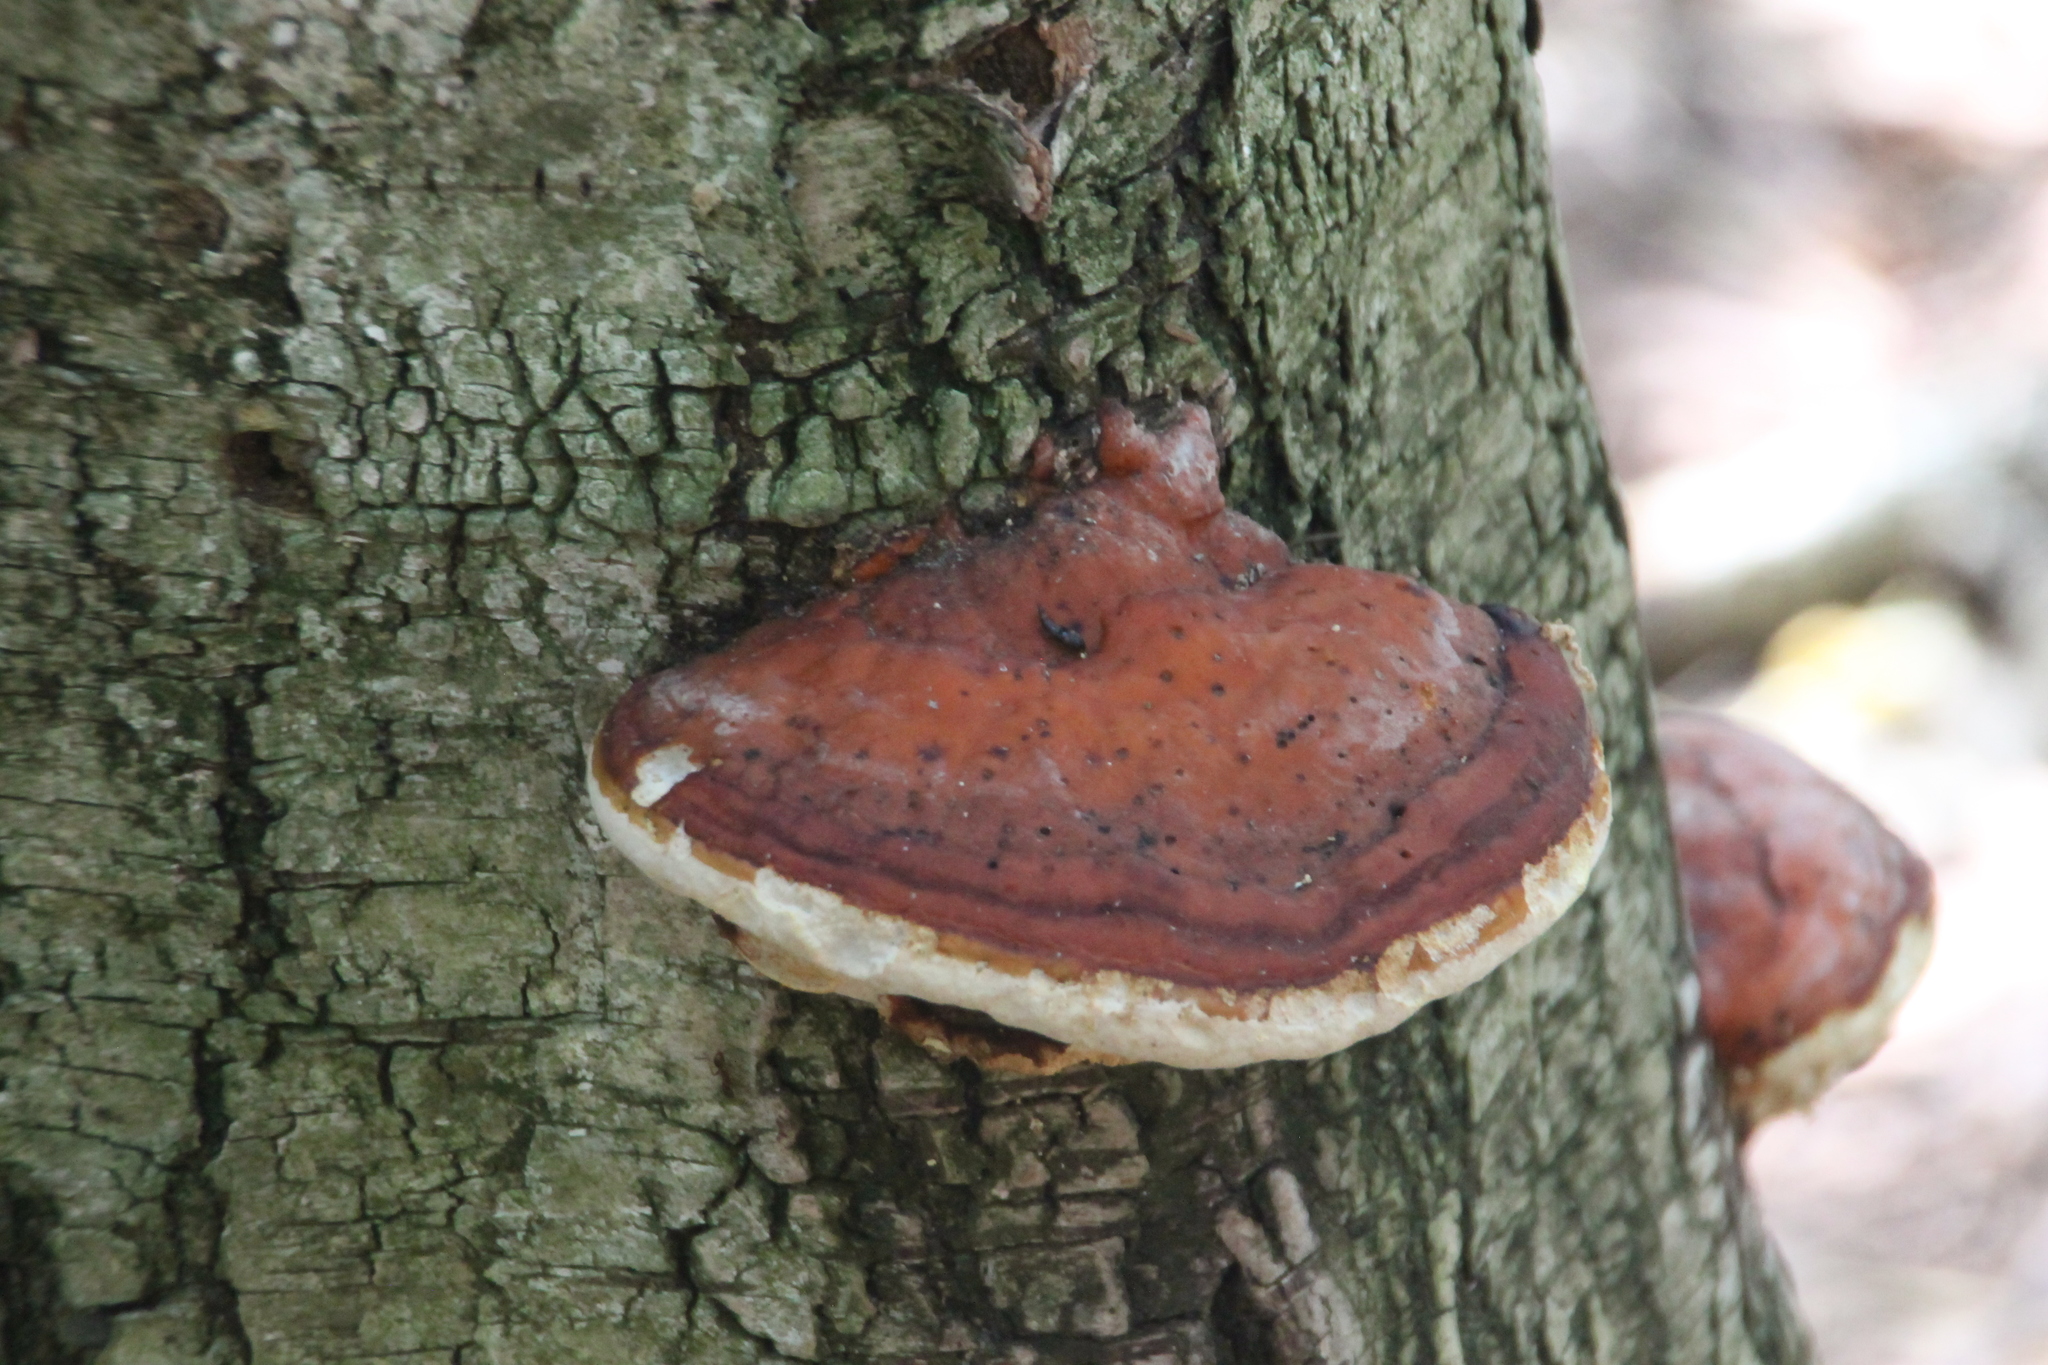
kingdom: Fungi
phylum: Basidiomycota
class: Agaricomycetes
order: Polyporales
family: Fomitopsidaceae
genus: Fomitopsis
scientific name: Fomitopsis pinicola
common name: Red-belted bracket
